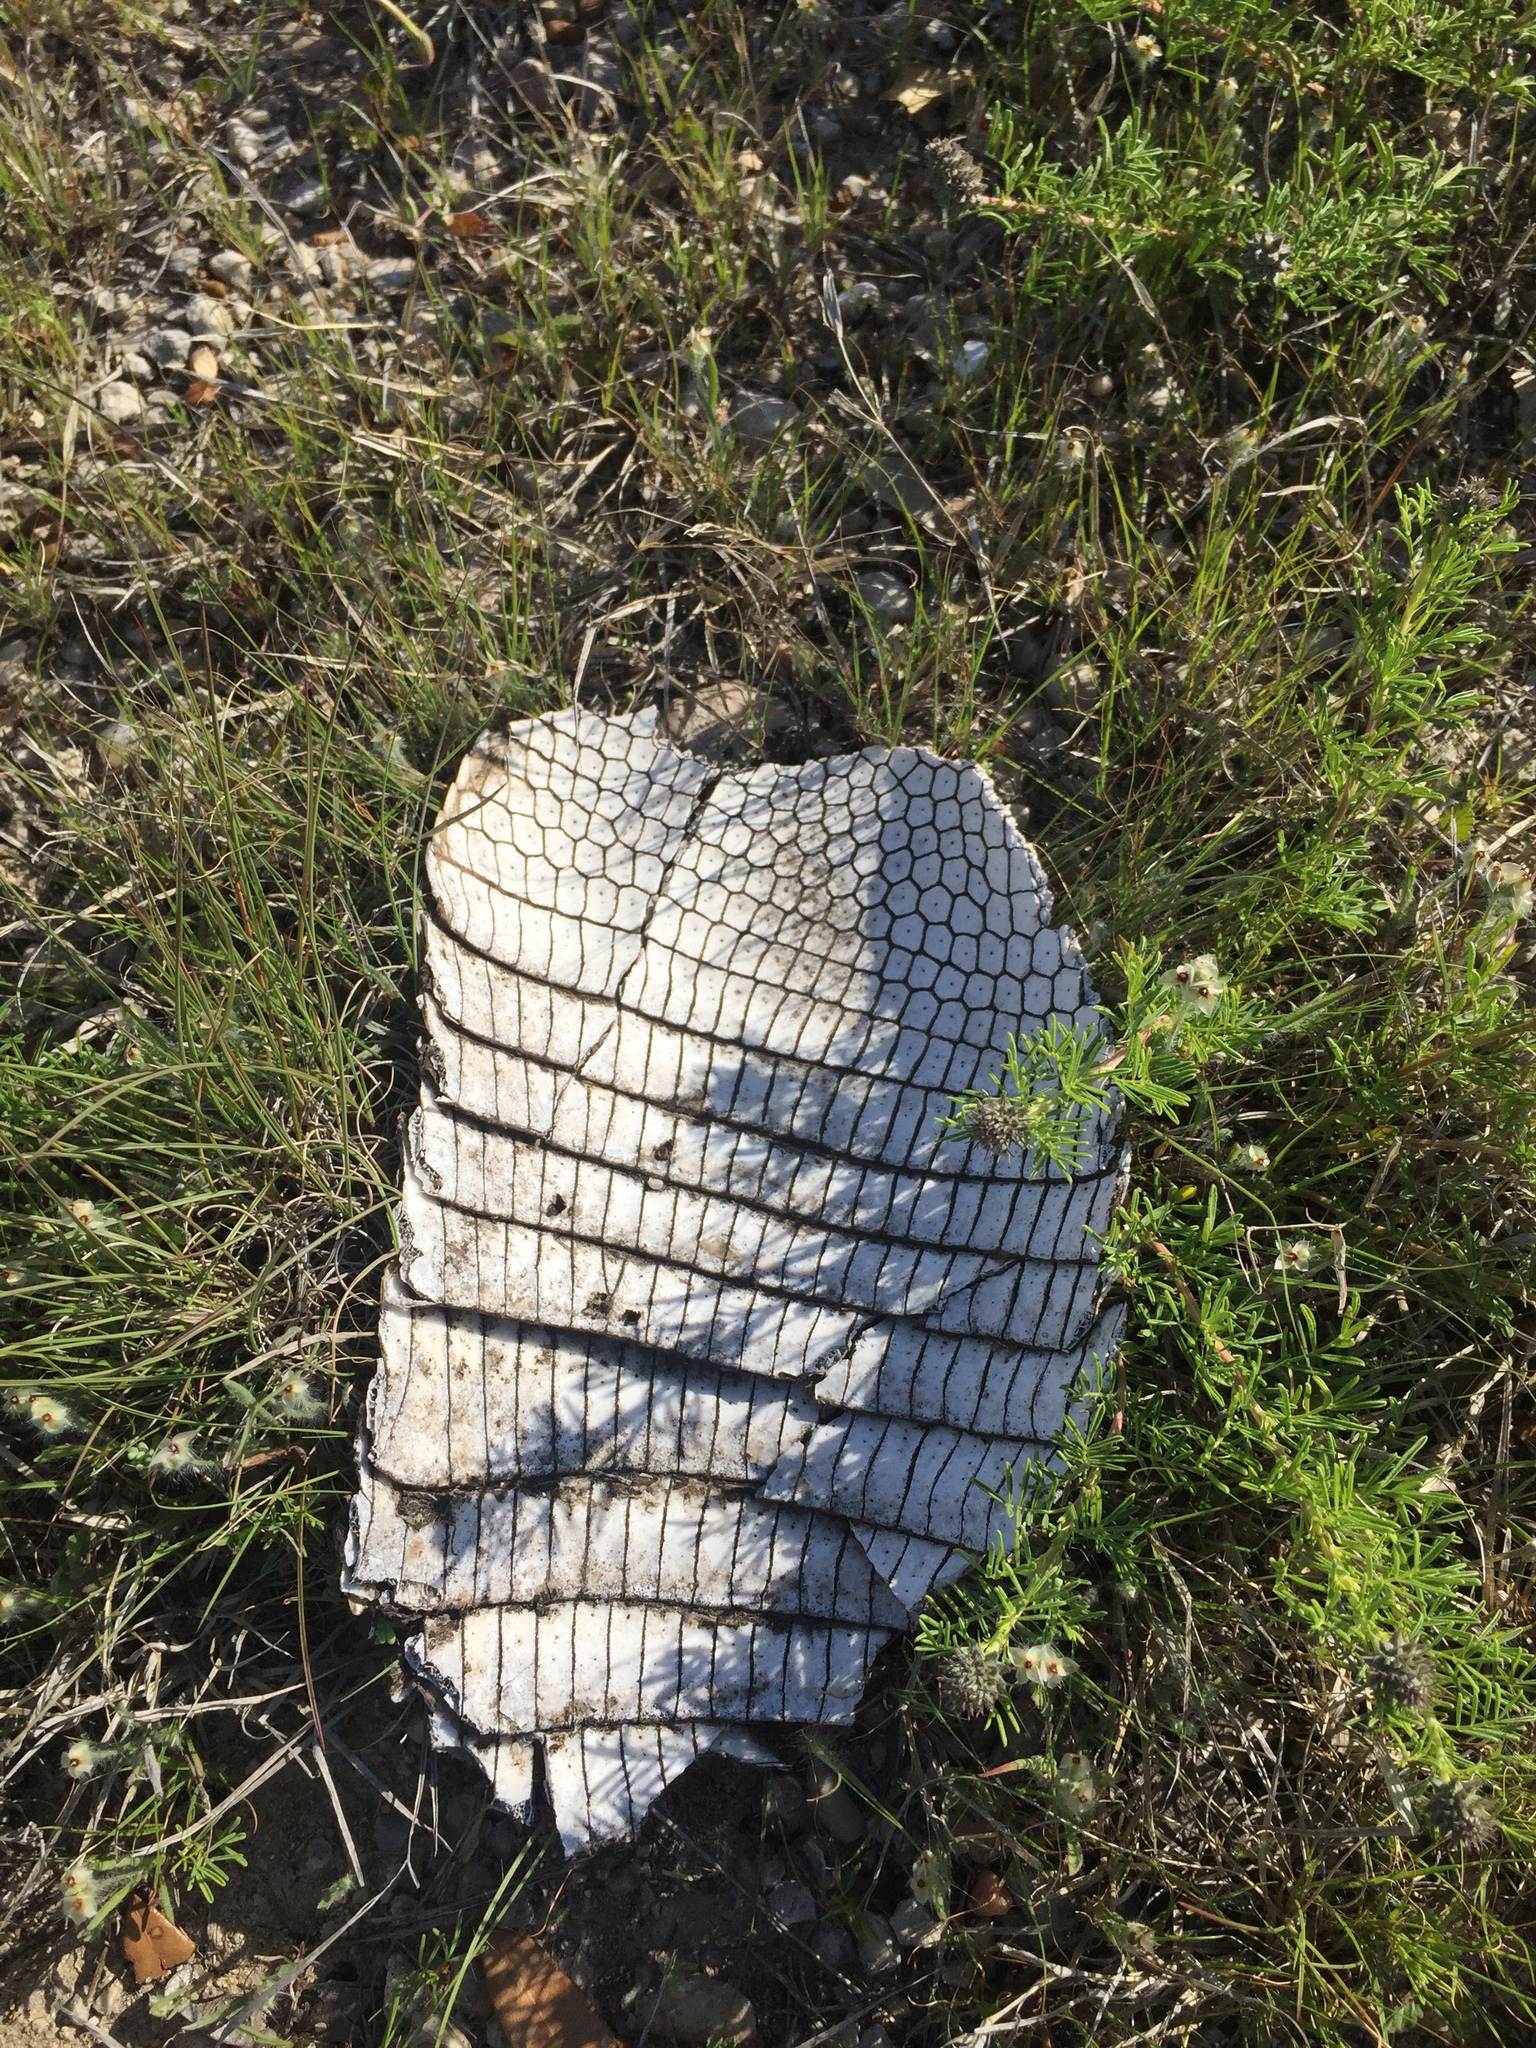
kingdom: Animalia
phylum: Chordata
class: Mammalia
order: Cingulata
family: Dasypodidae
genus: Dasypus
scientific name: Dasypus novemcinctus
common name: Nine-banded armadillo
